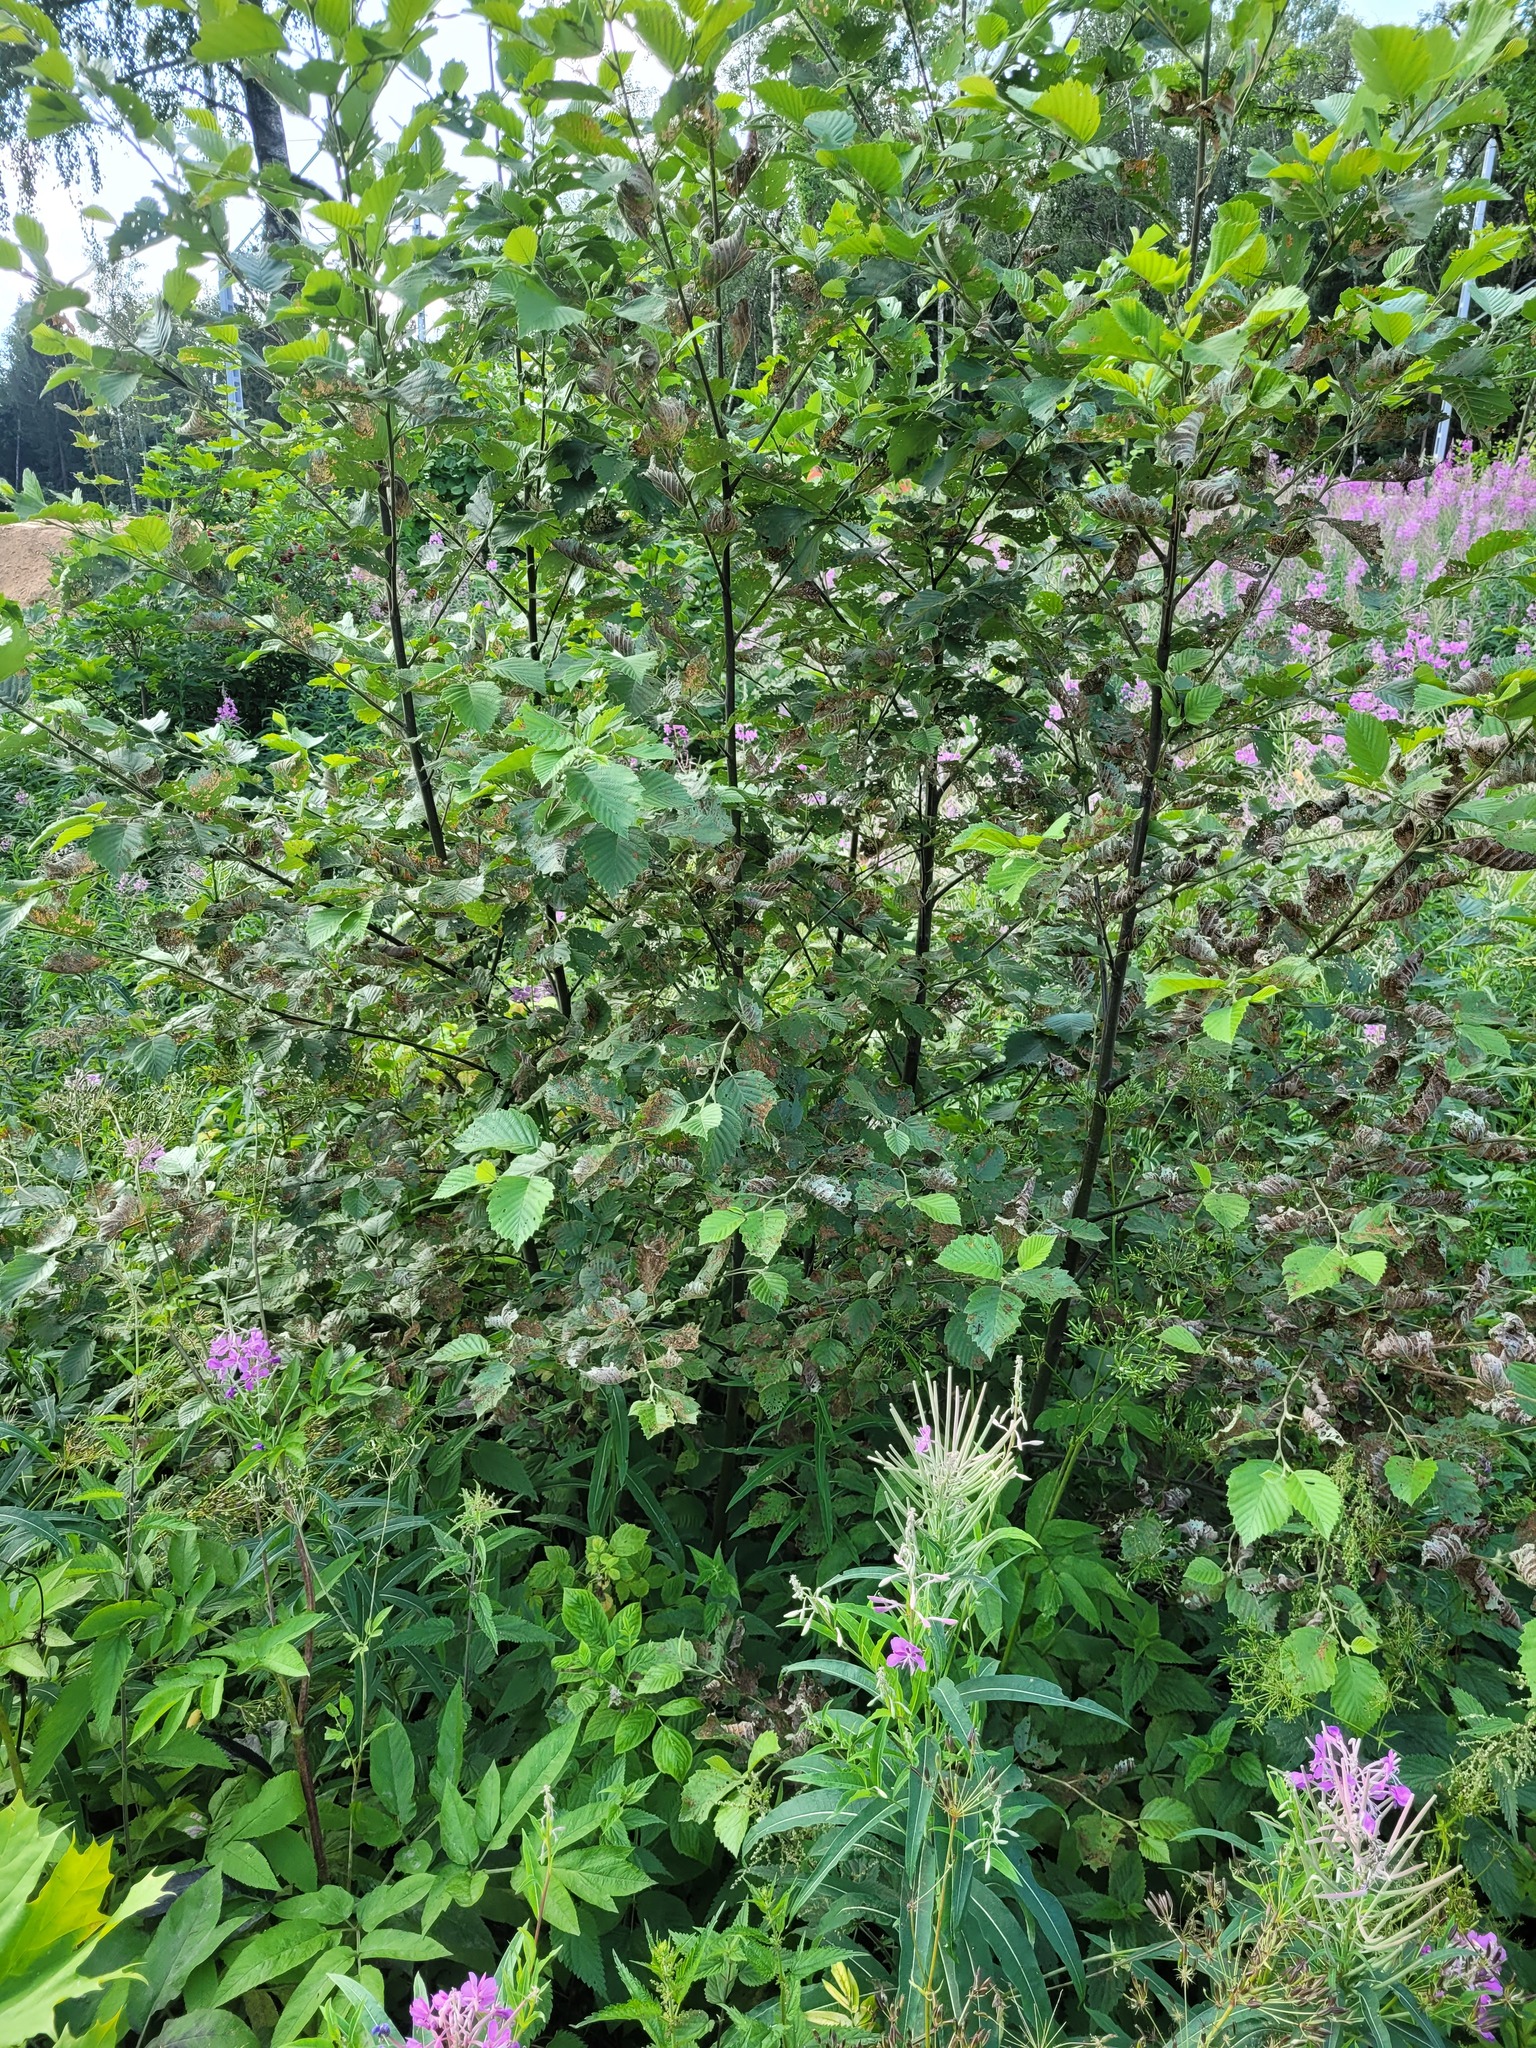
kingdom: Plantae
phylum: Tracheophyta
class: Magnoliopsida
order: Fagales
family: Betulaceae
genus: Alnus
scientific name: Alnus incana
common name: Grey alder
